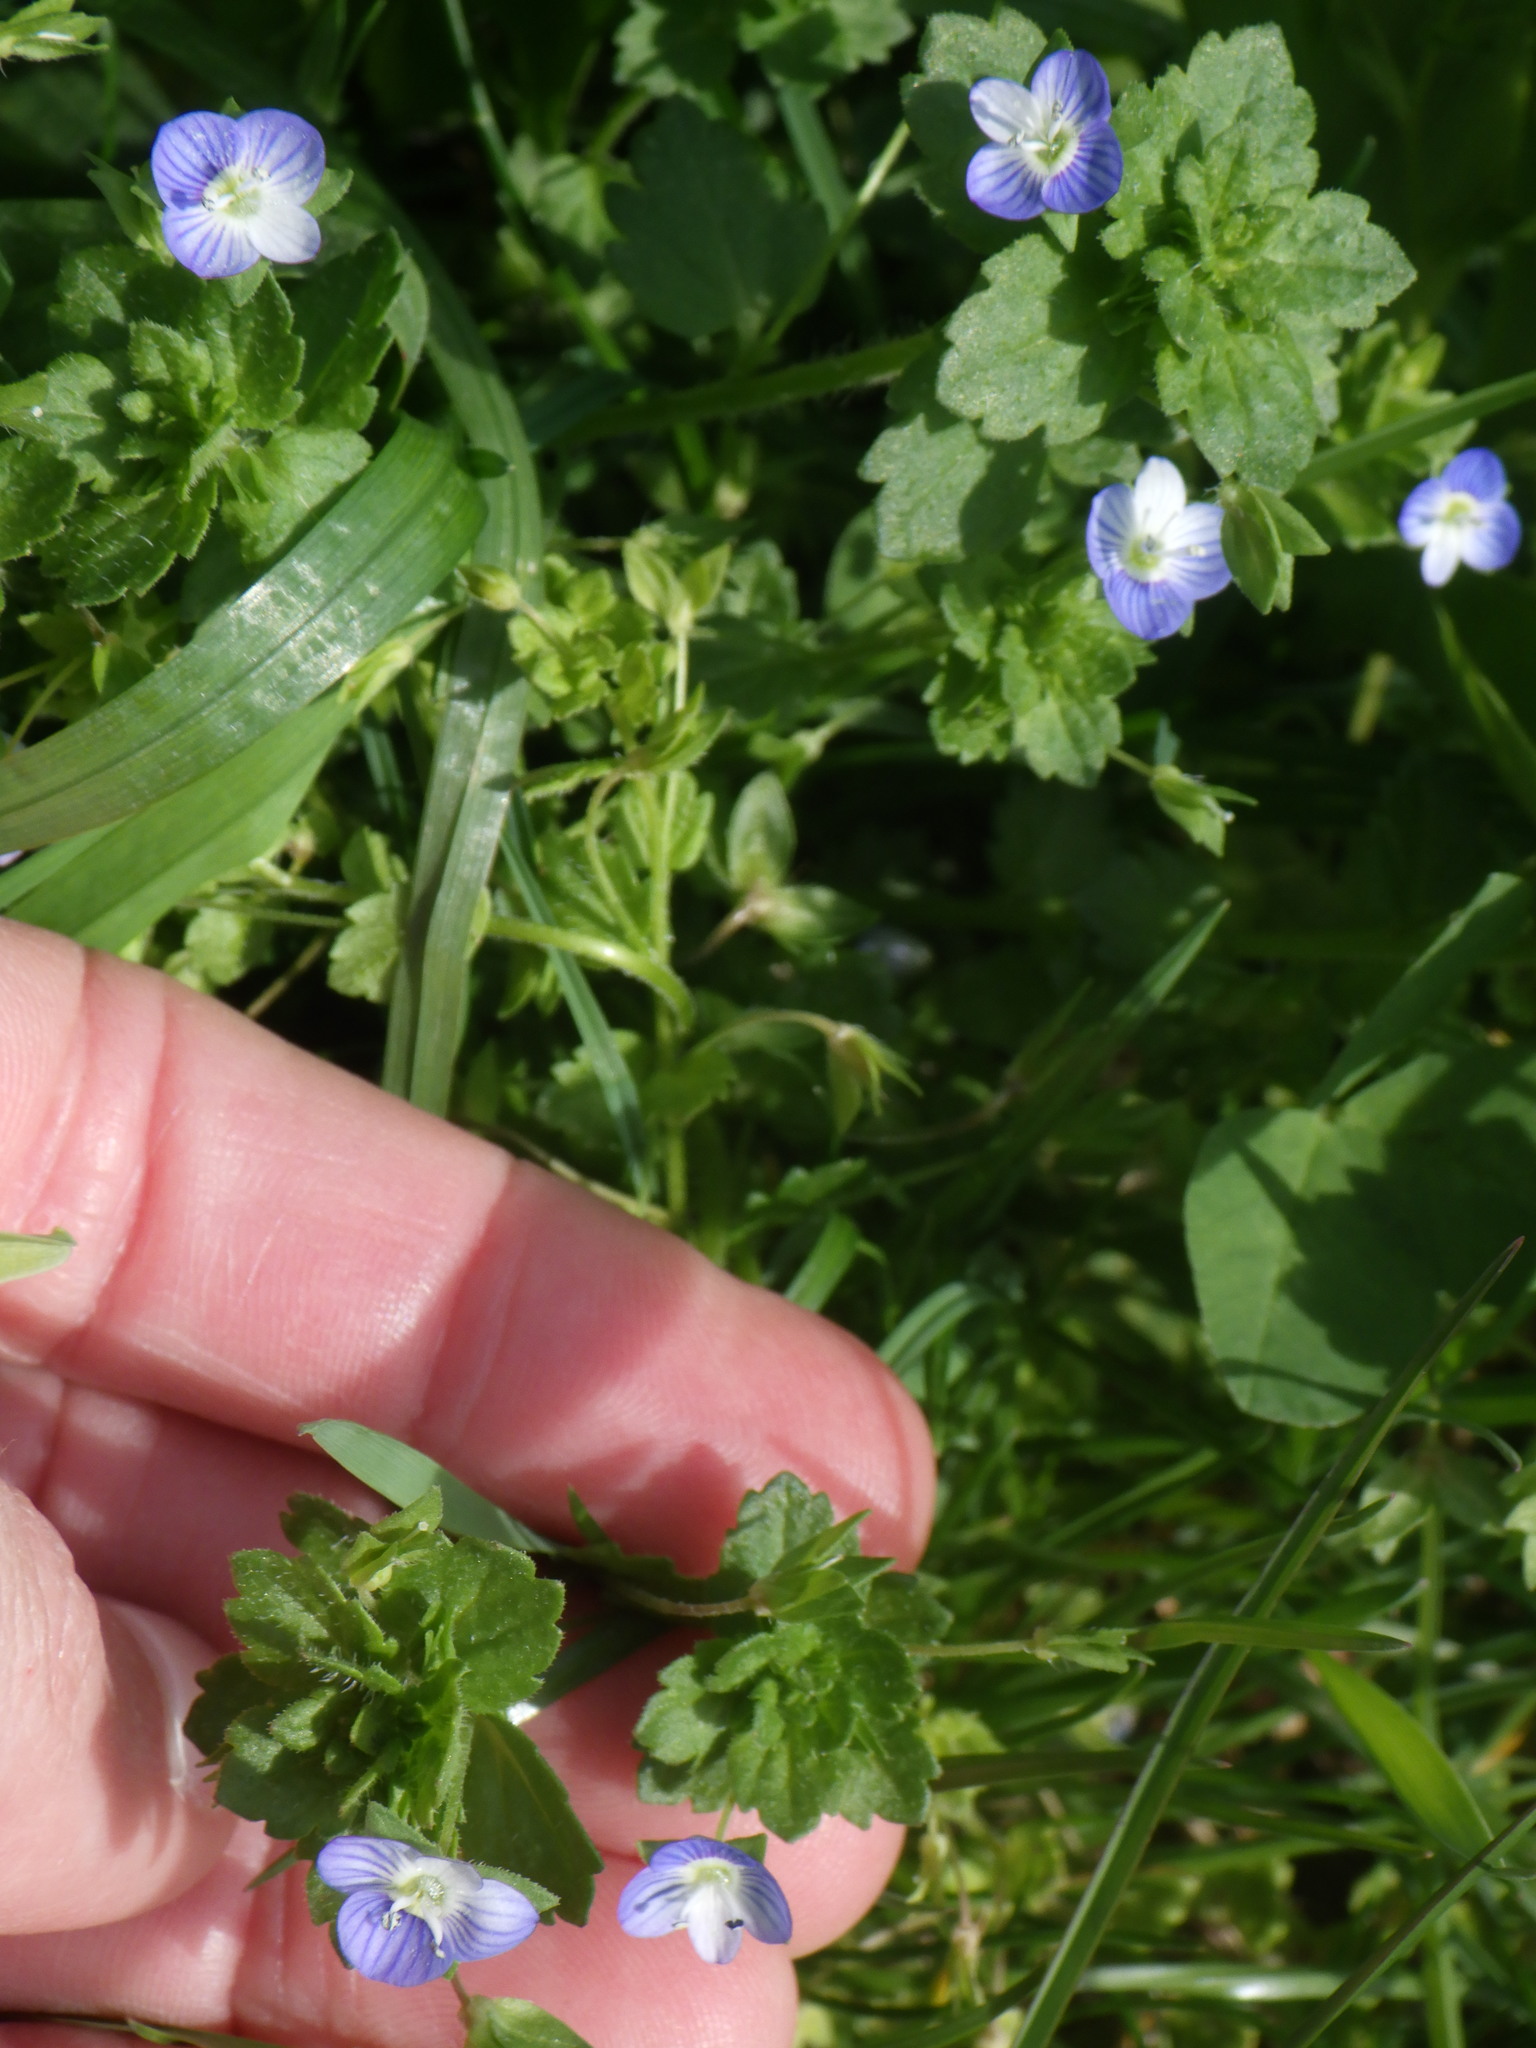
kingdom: Plantae
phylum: Tracheophyta
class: Magnoliopsida
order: Lamiales
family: Plantaginaceae
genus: Veronica
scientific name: Veronica persica
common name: Common field-speedwell
